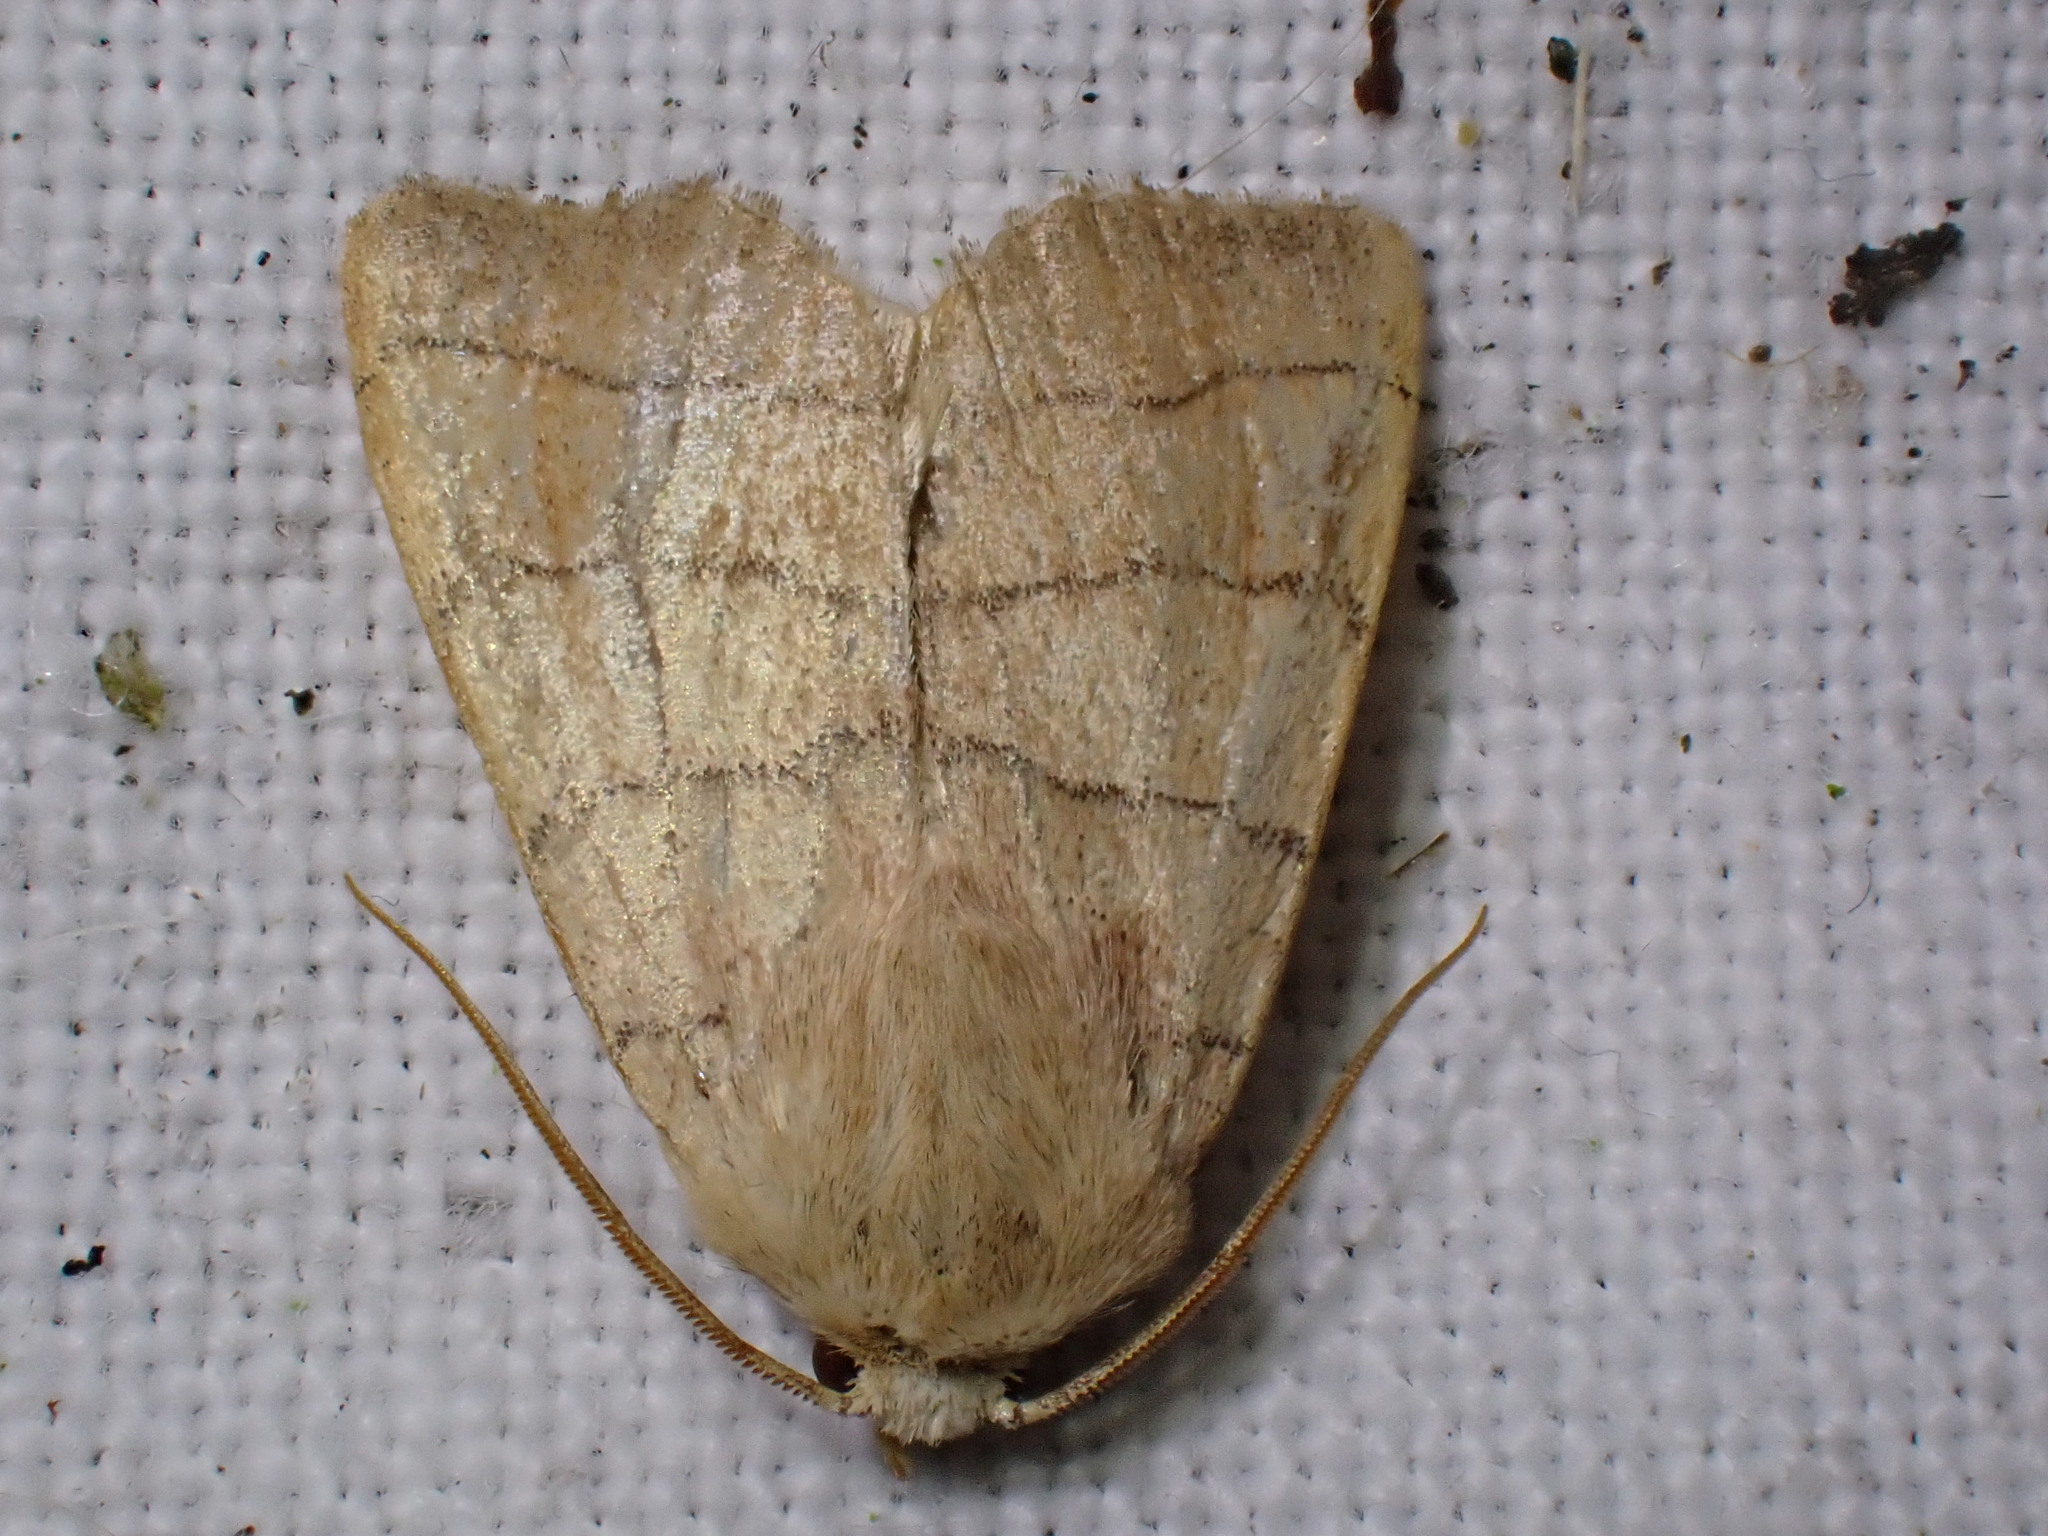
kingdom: Animalia
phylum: Arthropoda
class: Insecta
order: Lepidoptera
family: Noctuidae
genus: Charanyca
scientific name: Charanyca trigrammica
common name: Treble lines
